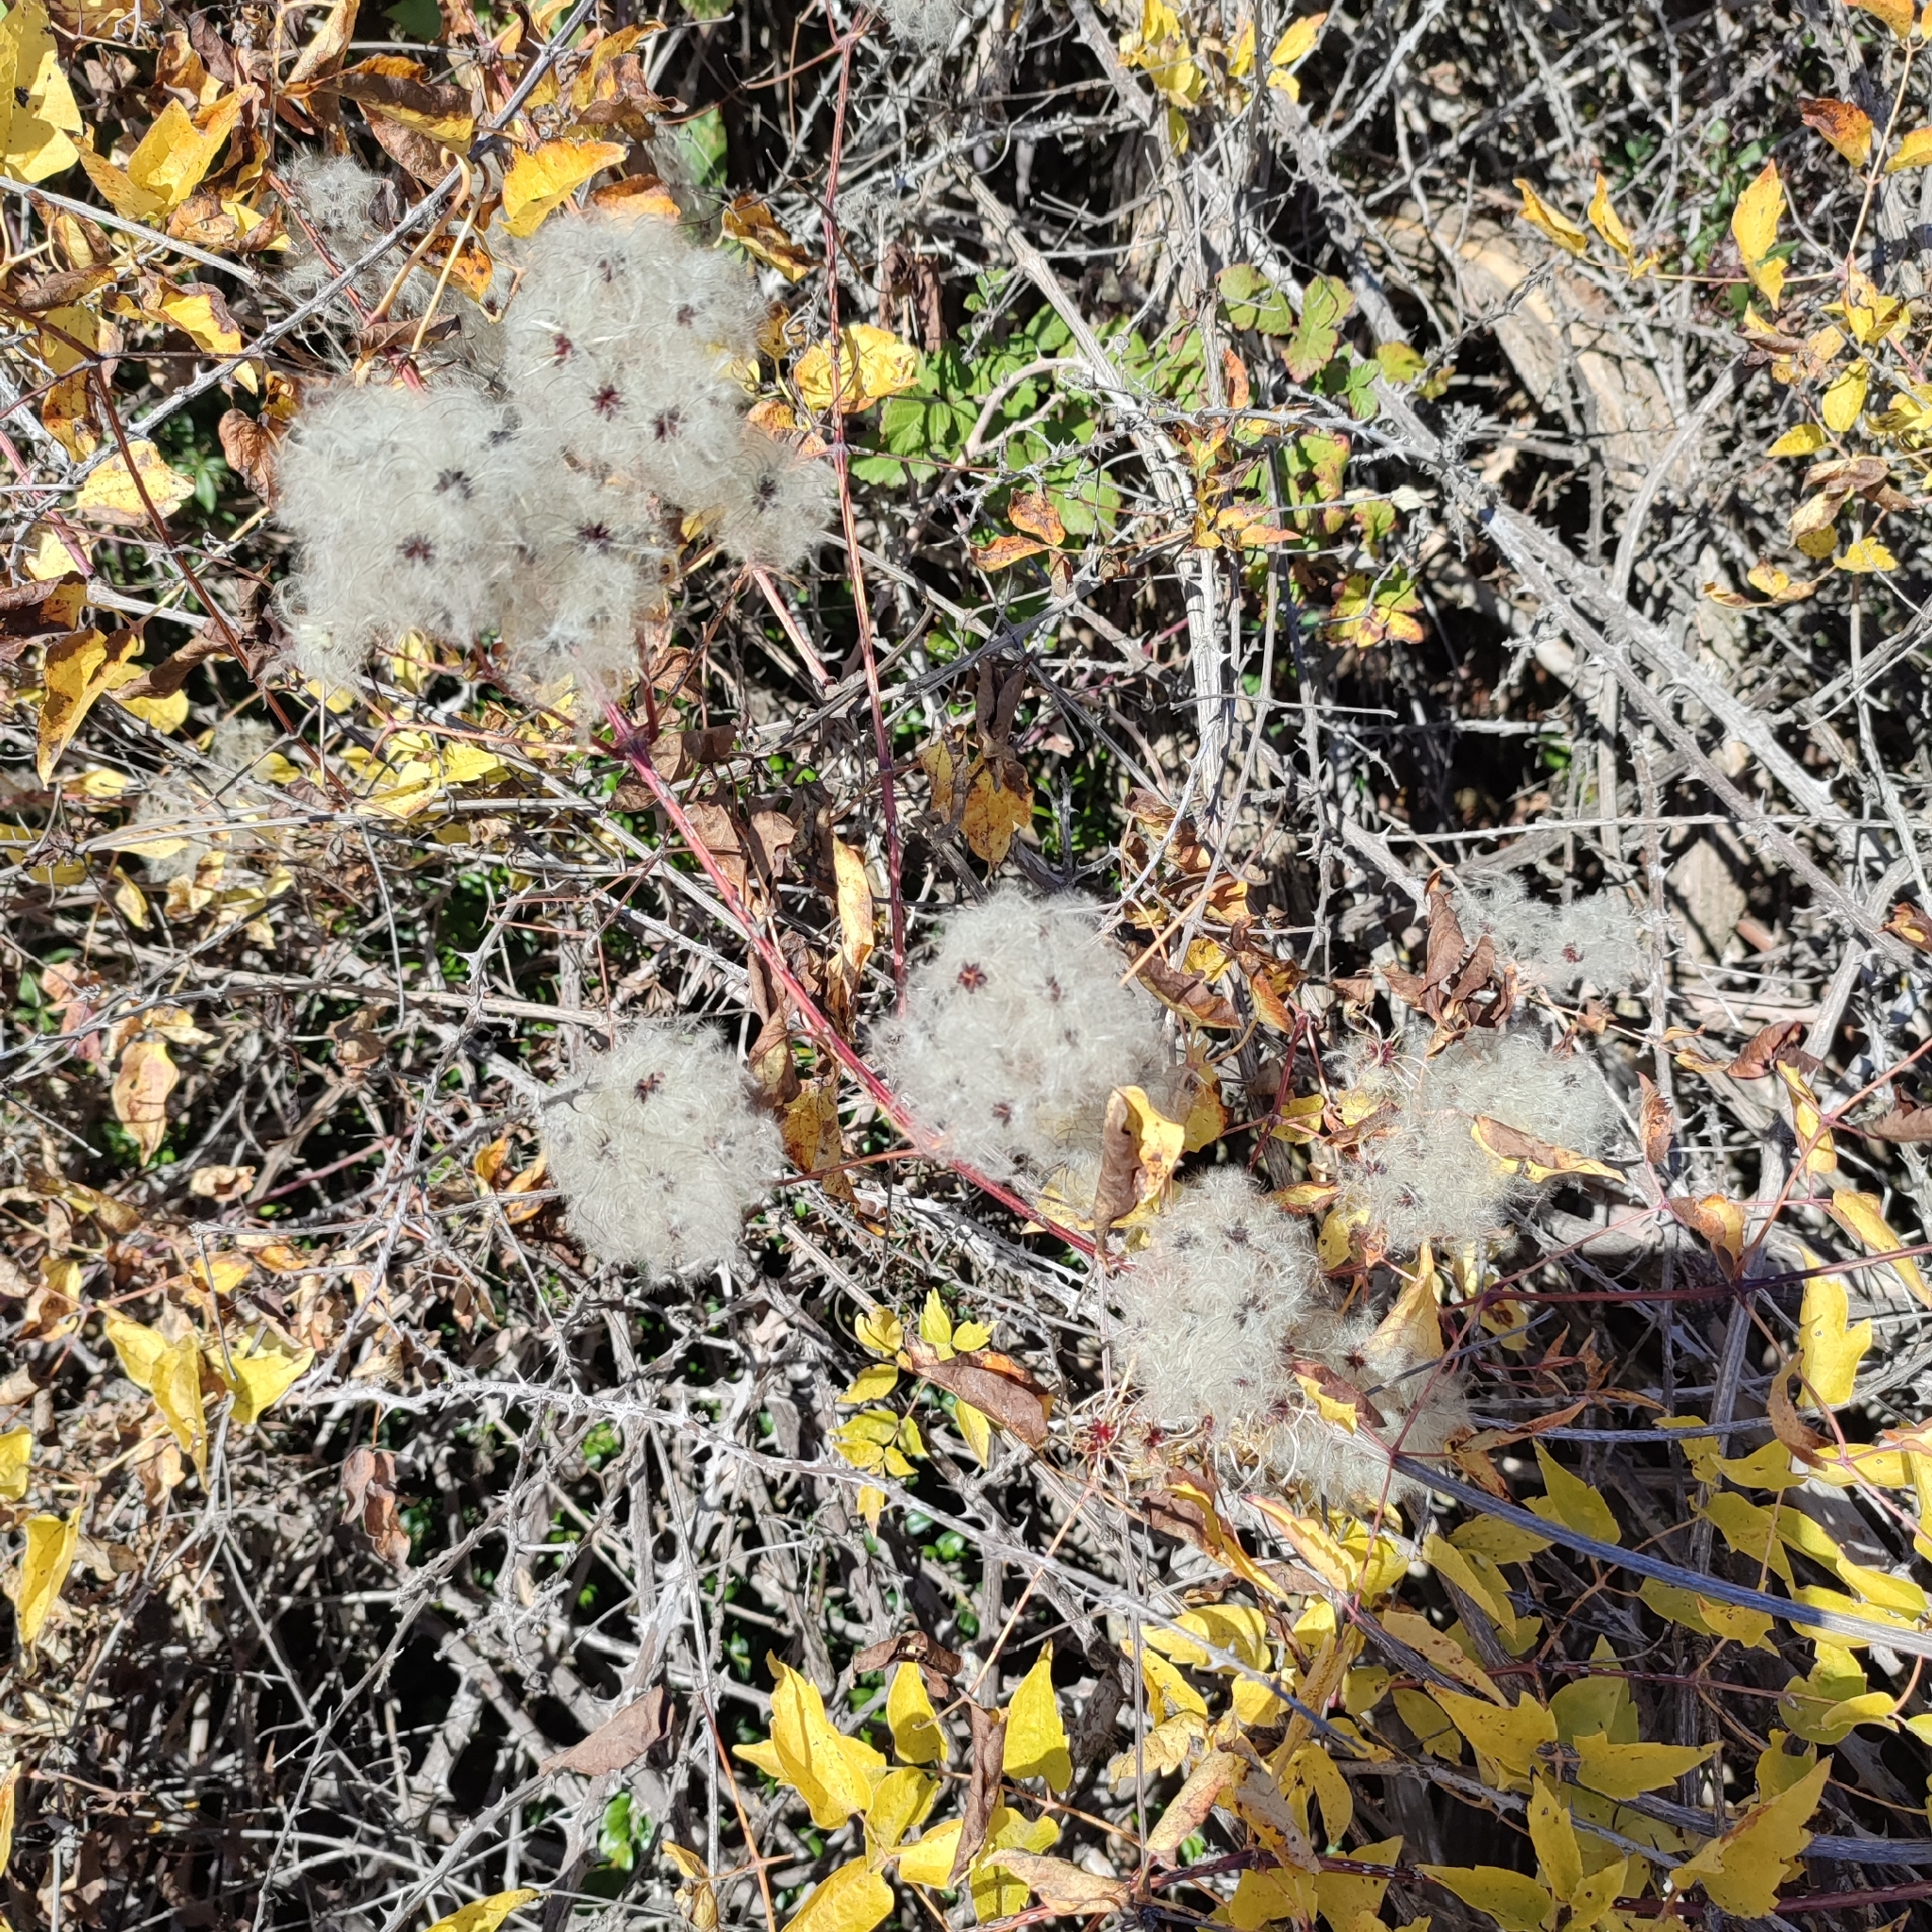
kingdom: Plantae
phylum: Tracheophyta
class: Magnoliopsida
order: Ranunculales
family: Ranunculaceae
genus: Clematis
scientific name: Clematis vitalba
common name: Evergreen clematis
